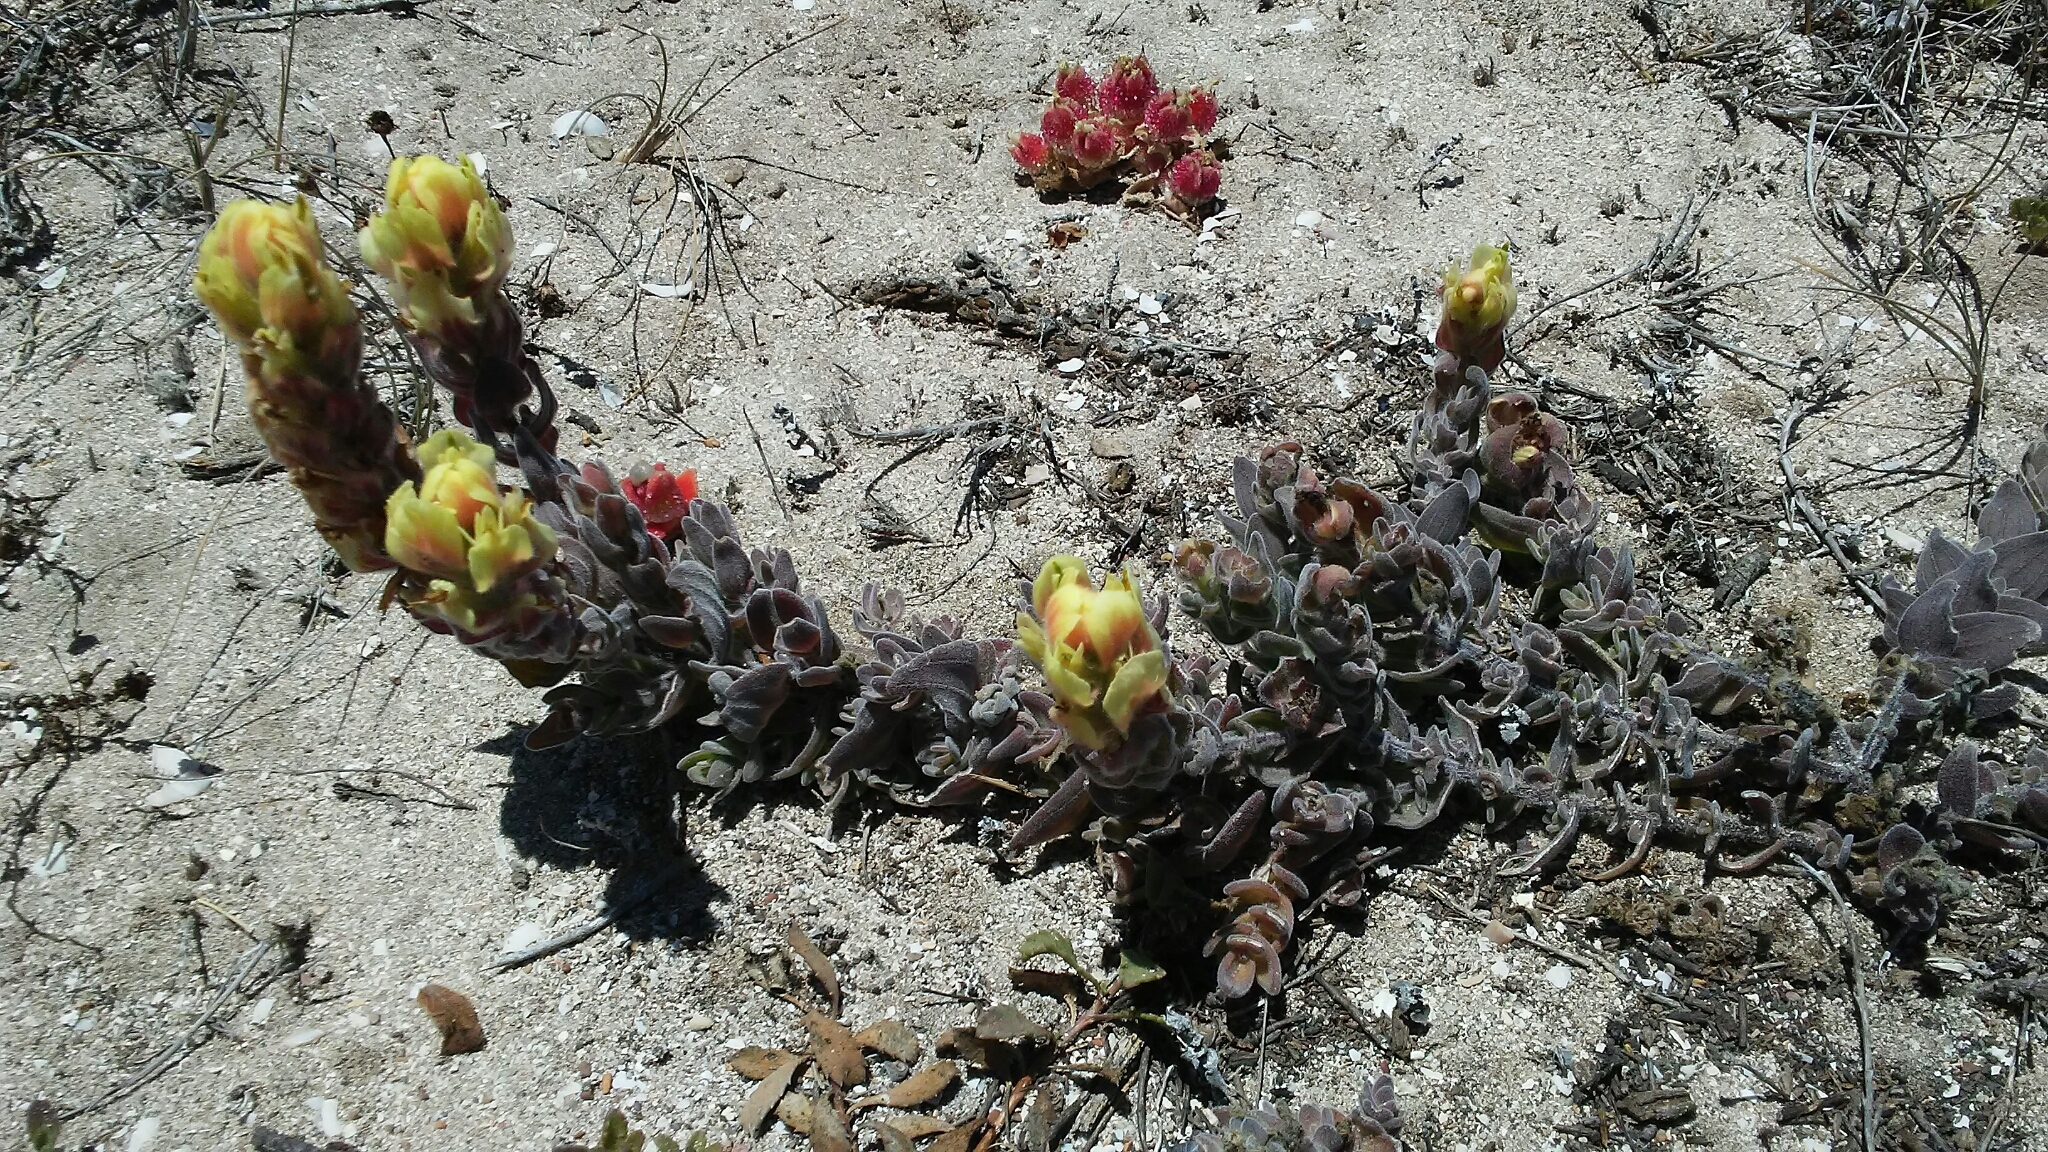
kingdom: Plantae
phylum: Tracheophyta
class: Magnoliopsida
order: Lamiales
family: Orobanchaceae
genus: Castilleja
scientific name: Castilleja mollis
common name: Soft-leaf paintbrush
